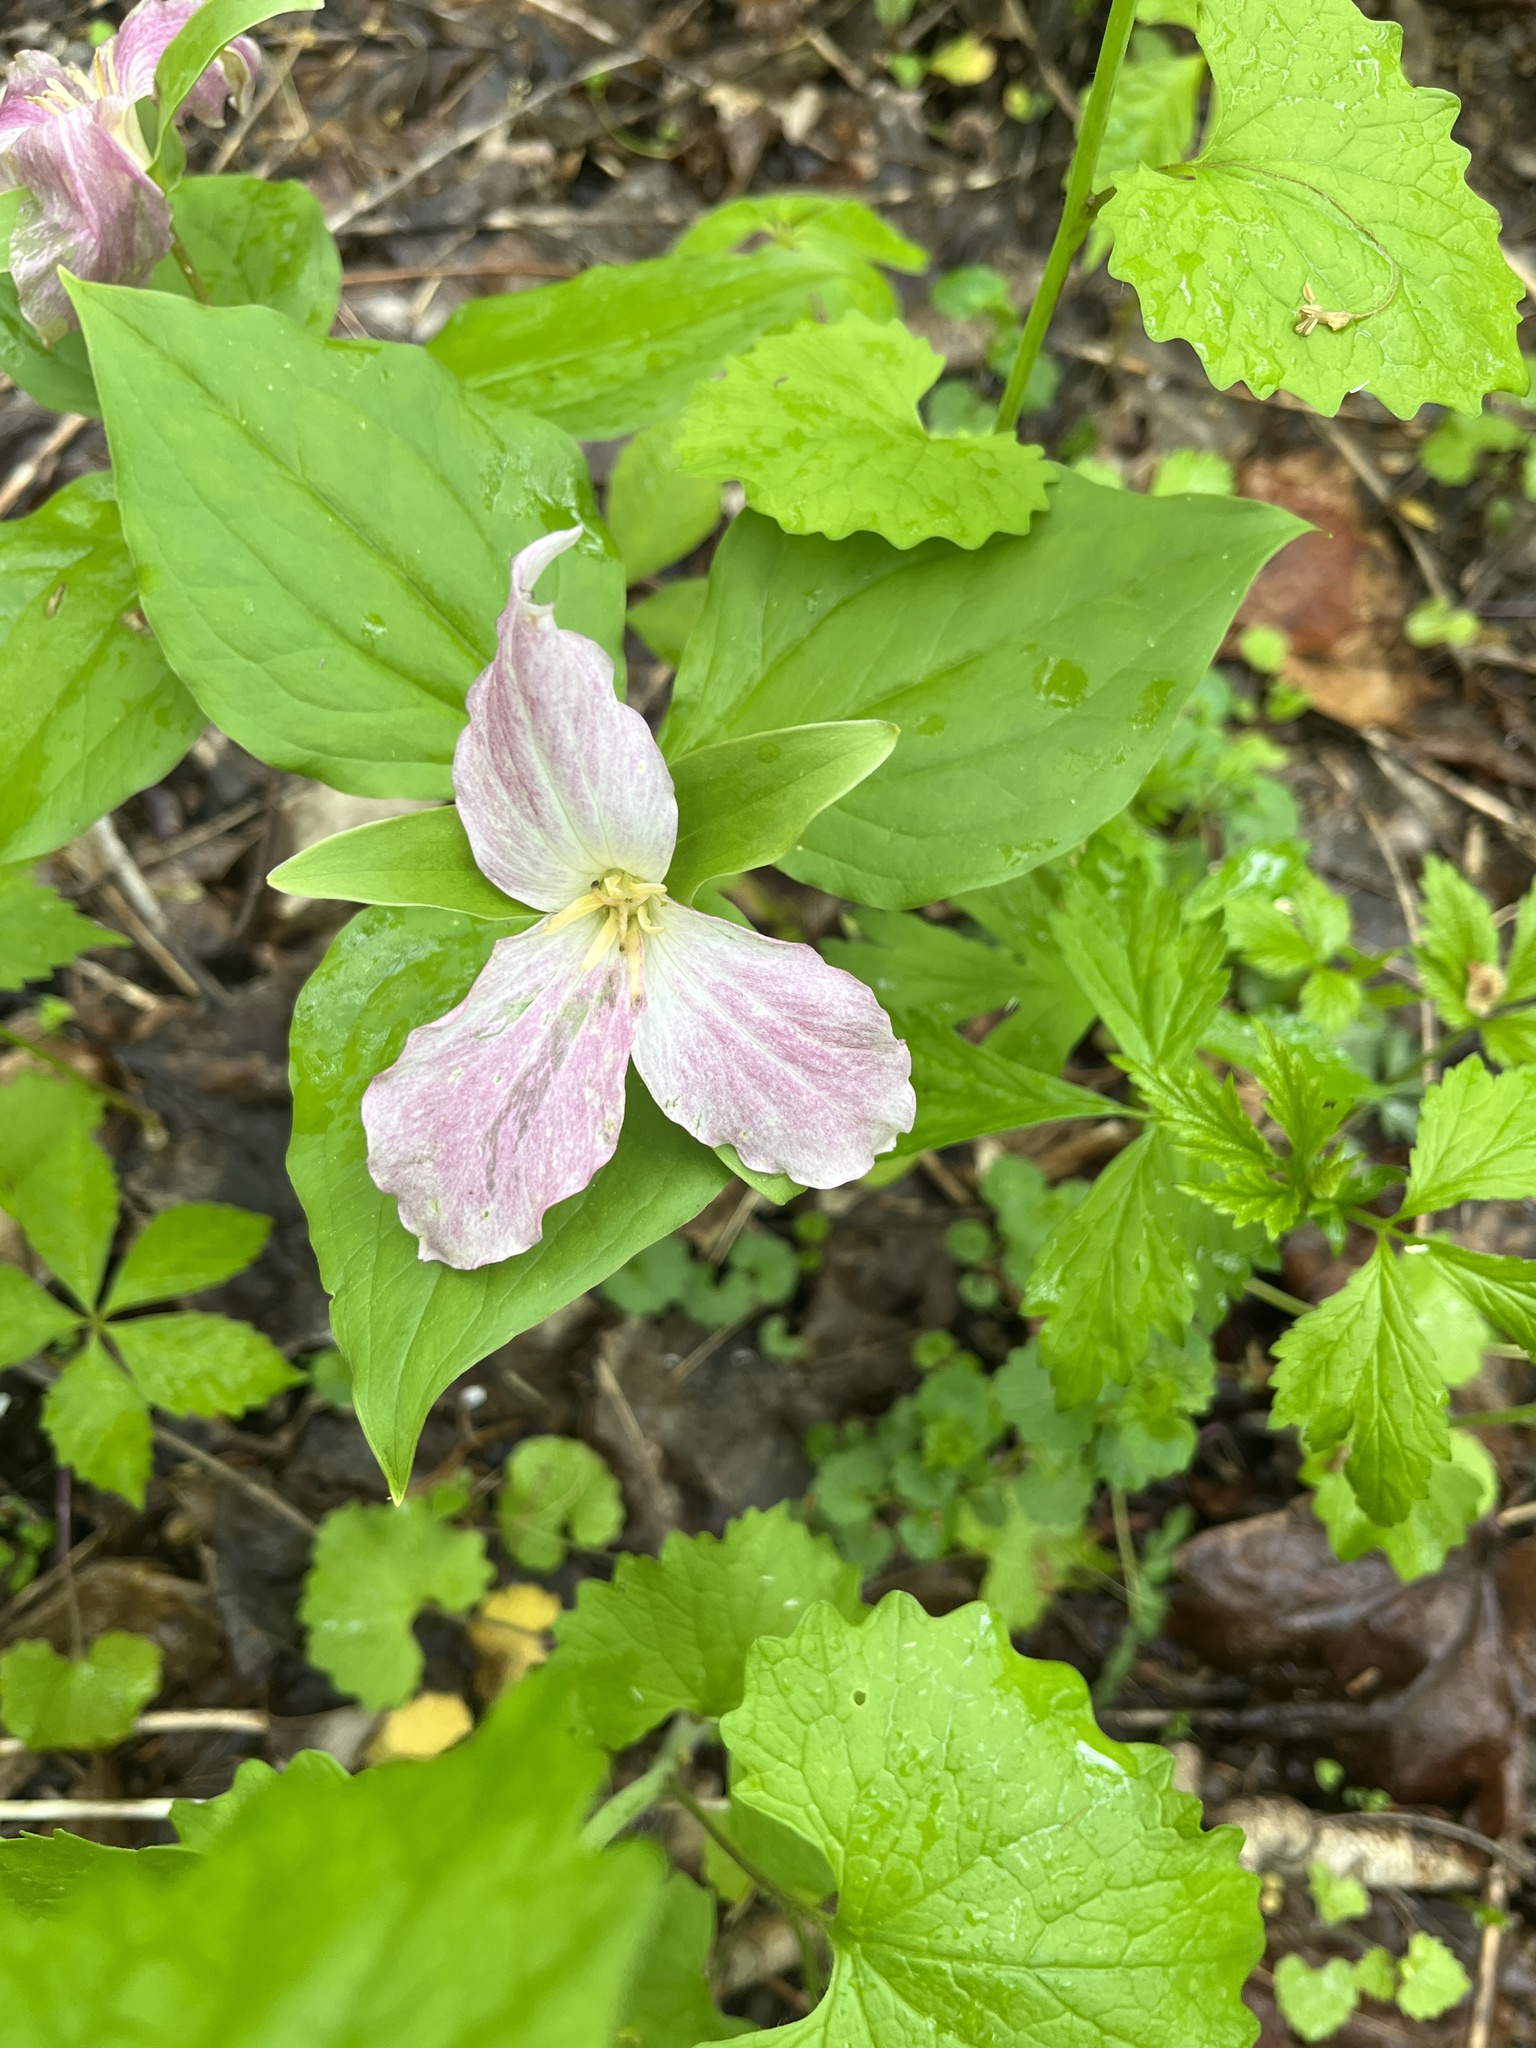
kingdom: Plantae
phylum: Tracheophyta
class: Liliopsida
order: Liliales
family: Melanthiaceae
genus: Trillium
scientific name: Trillium grandiflorum
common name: Great white trillium
